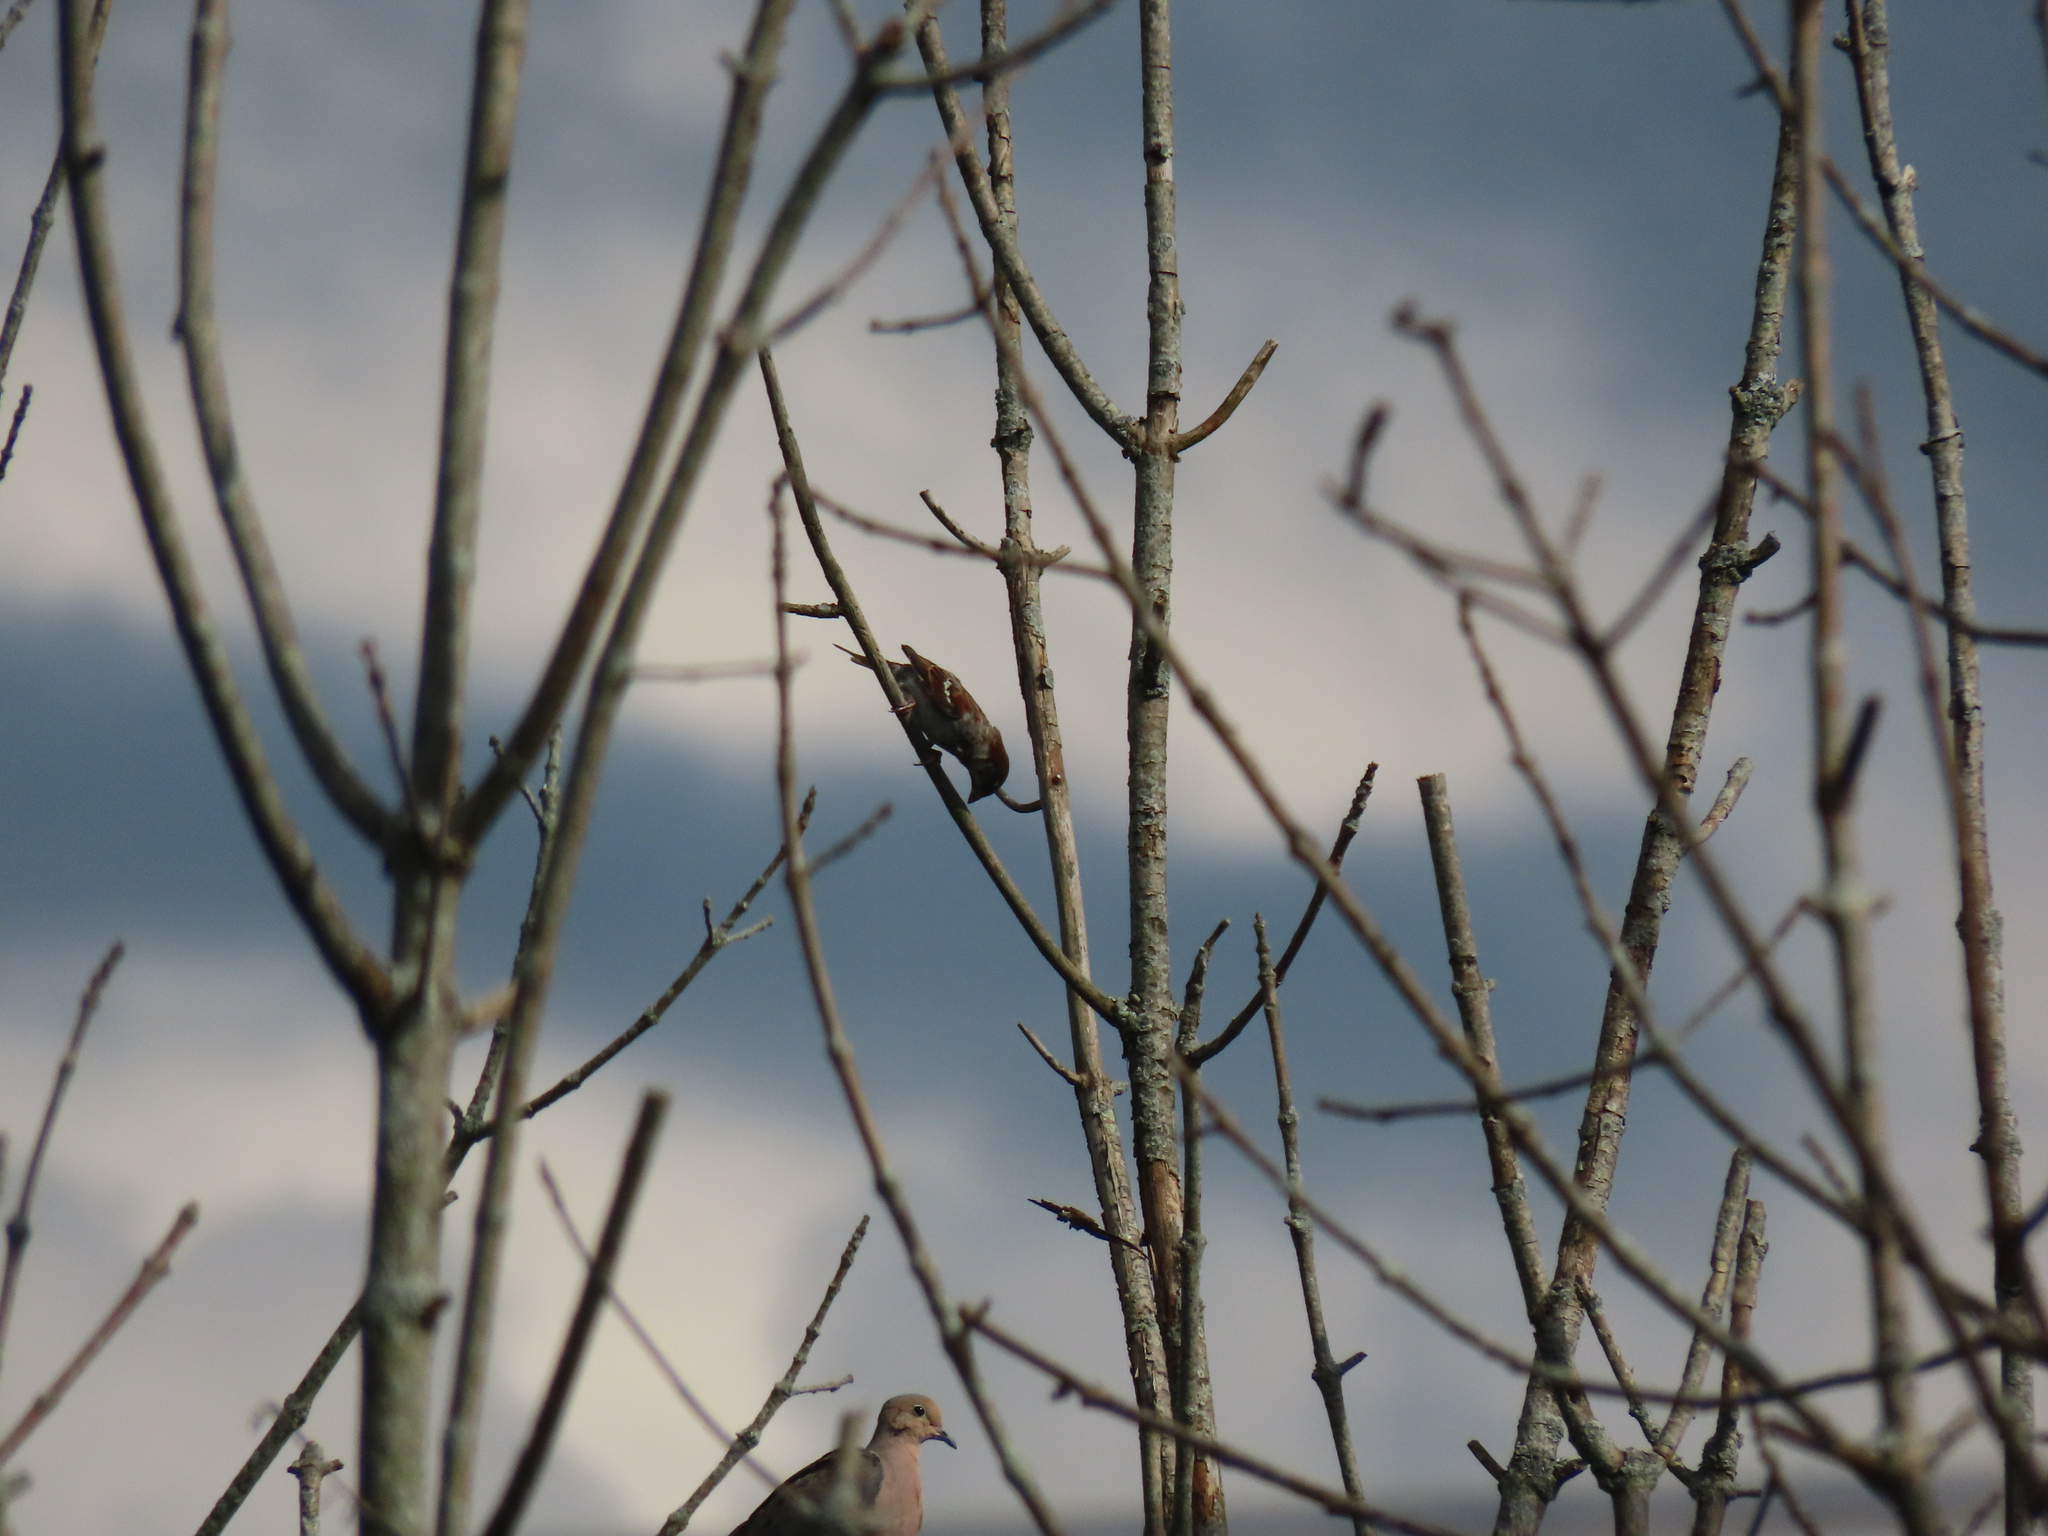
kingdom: Animalia
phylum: Chordata
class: Aves
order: Passeriformes
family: Passeridae
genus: Passer
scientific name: Passer domesticus
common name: House sparrow
